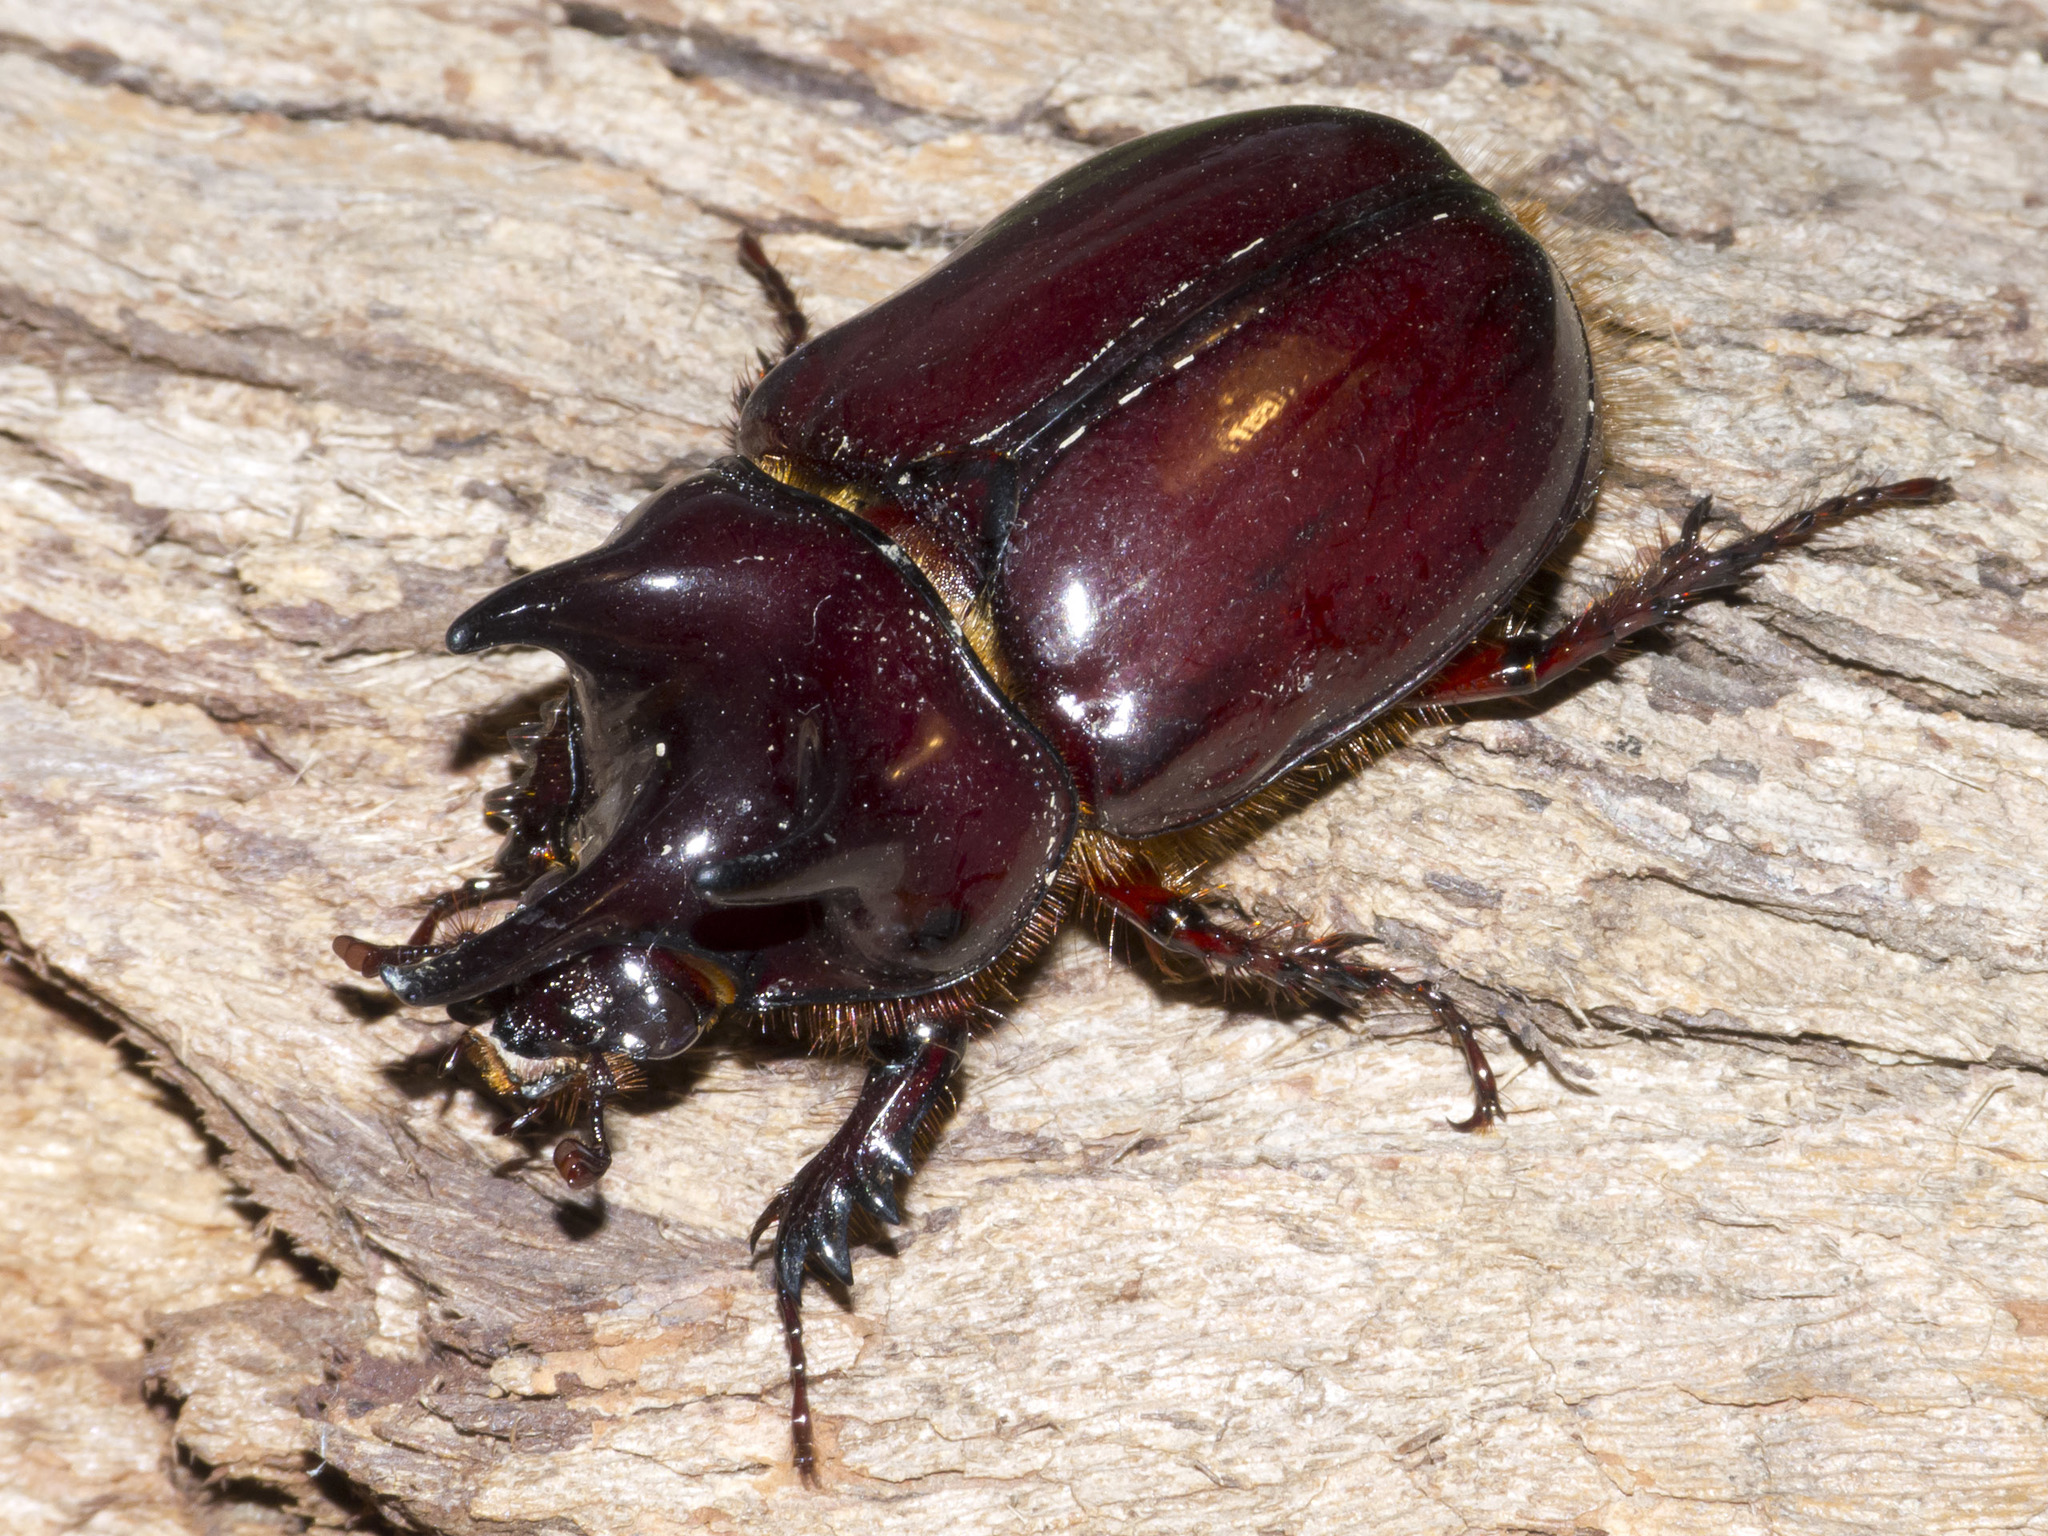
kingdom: Animalia
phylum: Arthropoda
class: Insecta
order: Coleoptera
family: Scarabaeidae
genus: Strategus
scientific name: Strategus fascinus
